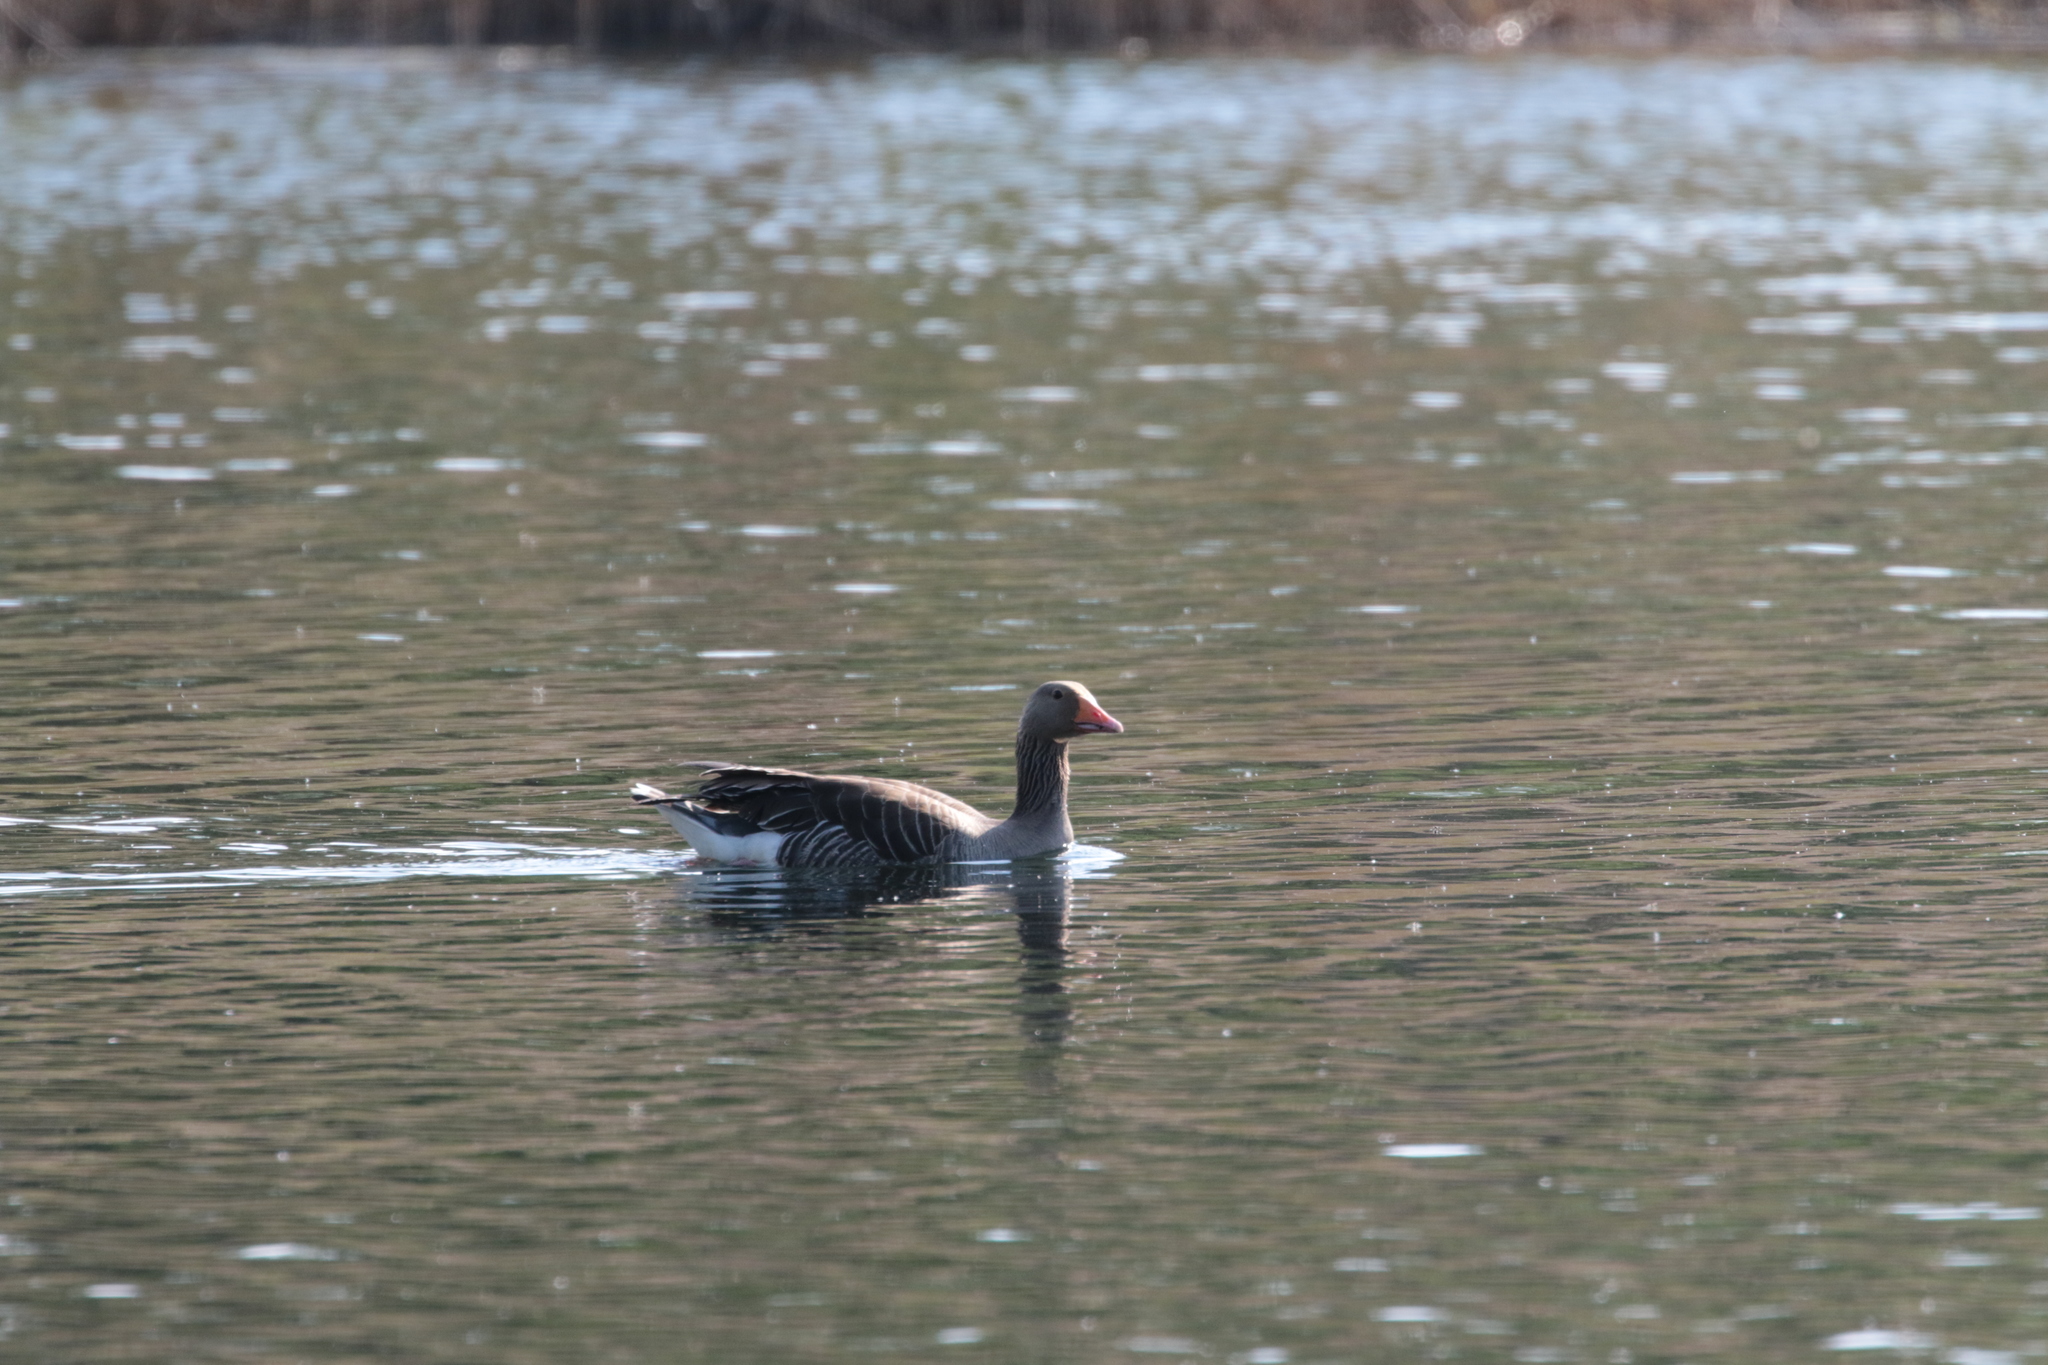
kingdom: Animalia
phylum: Chordata
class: Aves
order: Anseriformes
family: Anatidae
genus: Anser
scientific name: Anser anser
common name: Greylag goose
